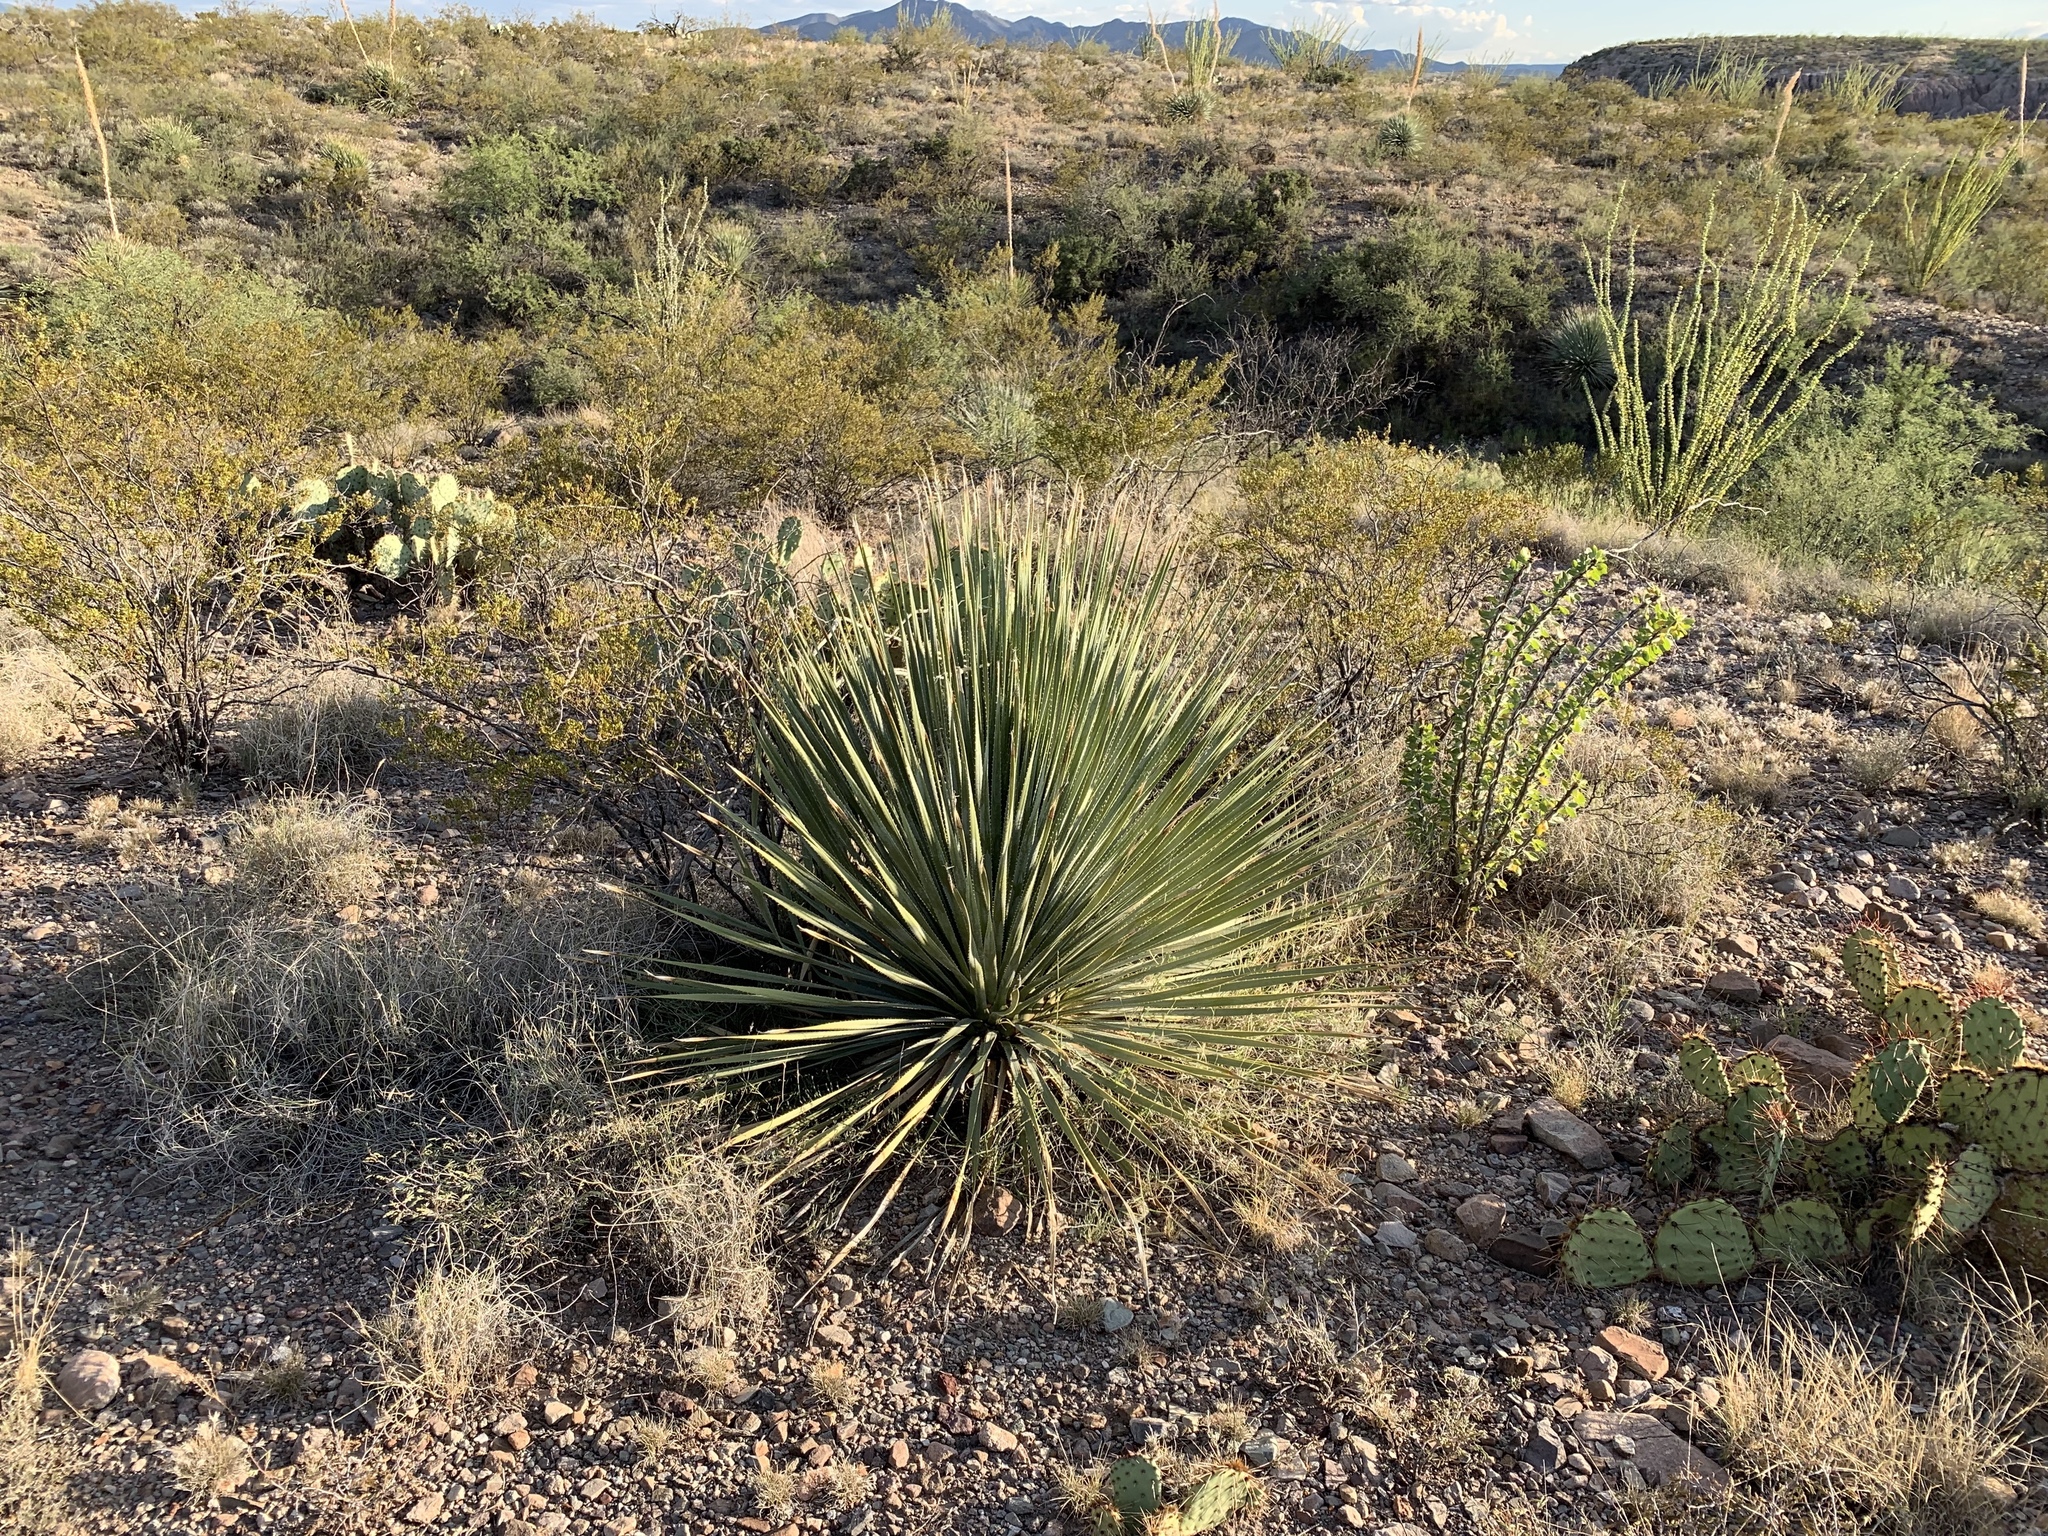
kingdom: Plantae
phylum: Tracheophyta
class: Liliopsida
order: Asparagales
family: Asparagaceae
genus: Dasylirion
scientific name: Dasylirion wheeleri
